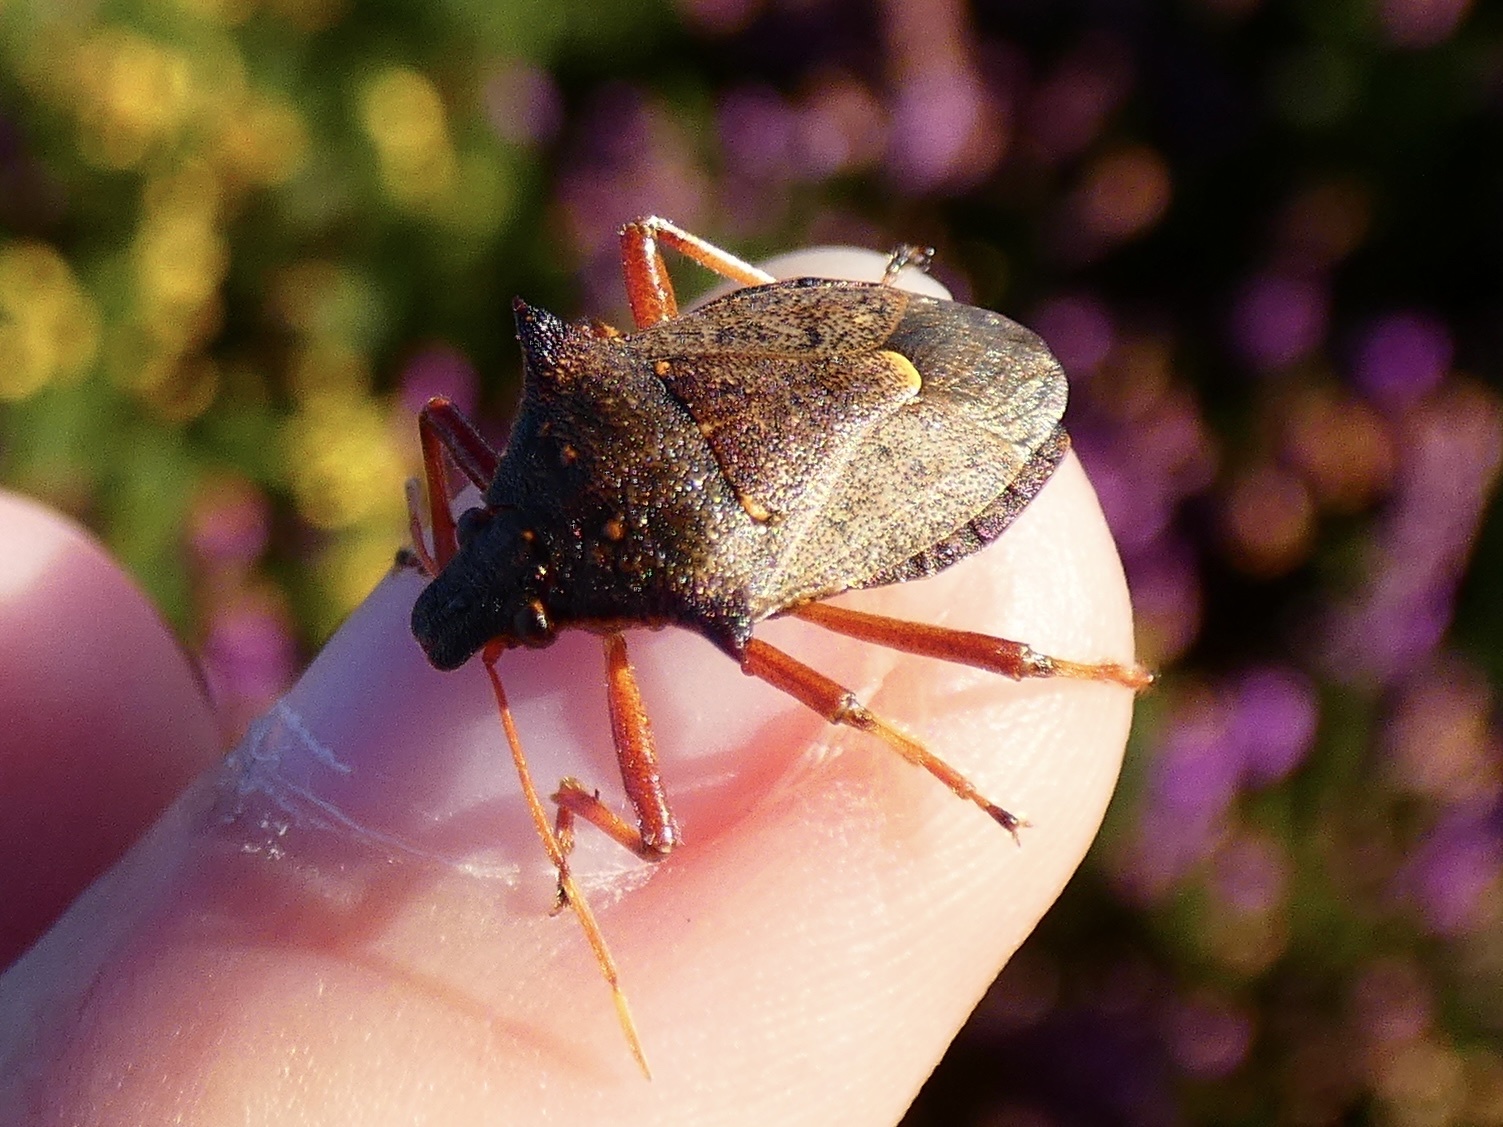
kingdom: Animalia
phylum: Arthropoda
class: Insecta
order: Hemiptera
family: Pentatomidae
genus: Picromerus
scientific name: Picromerus bidens
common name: Spiked shieldbug
